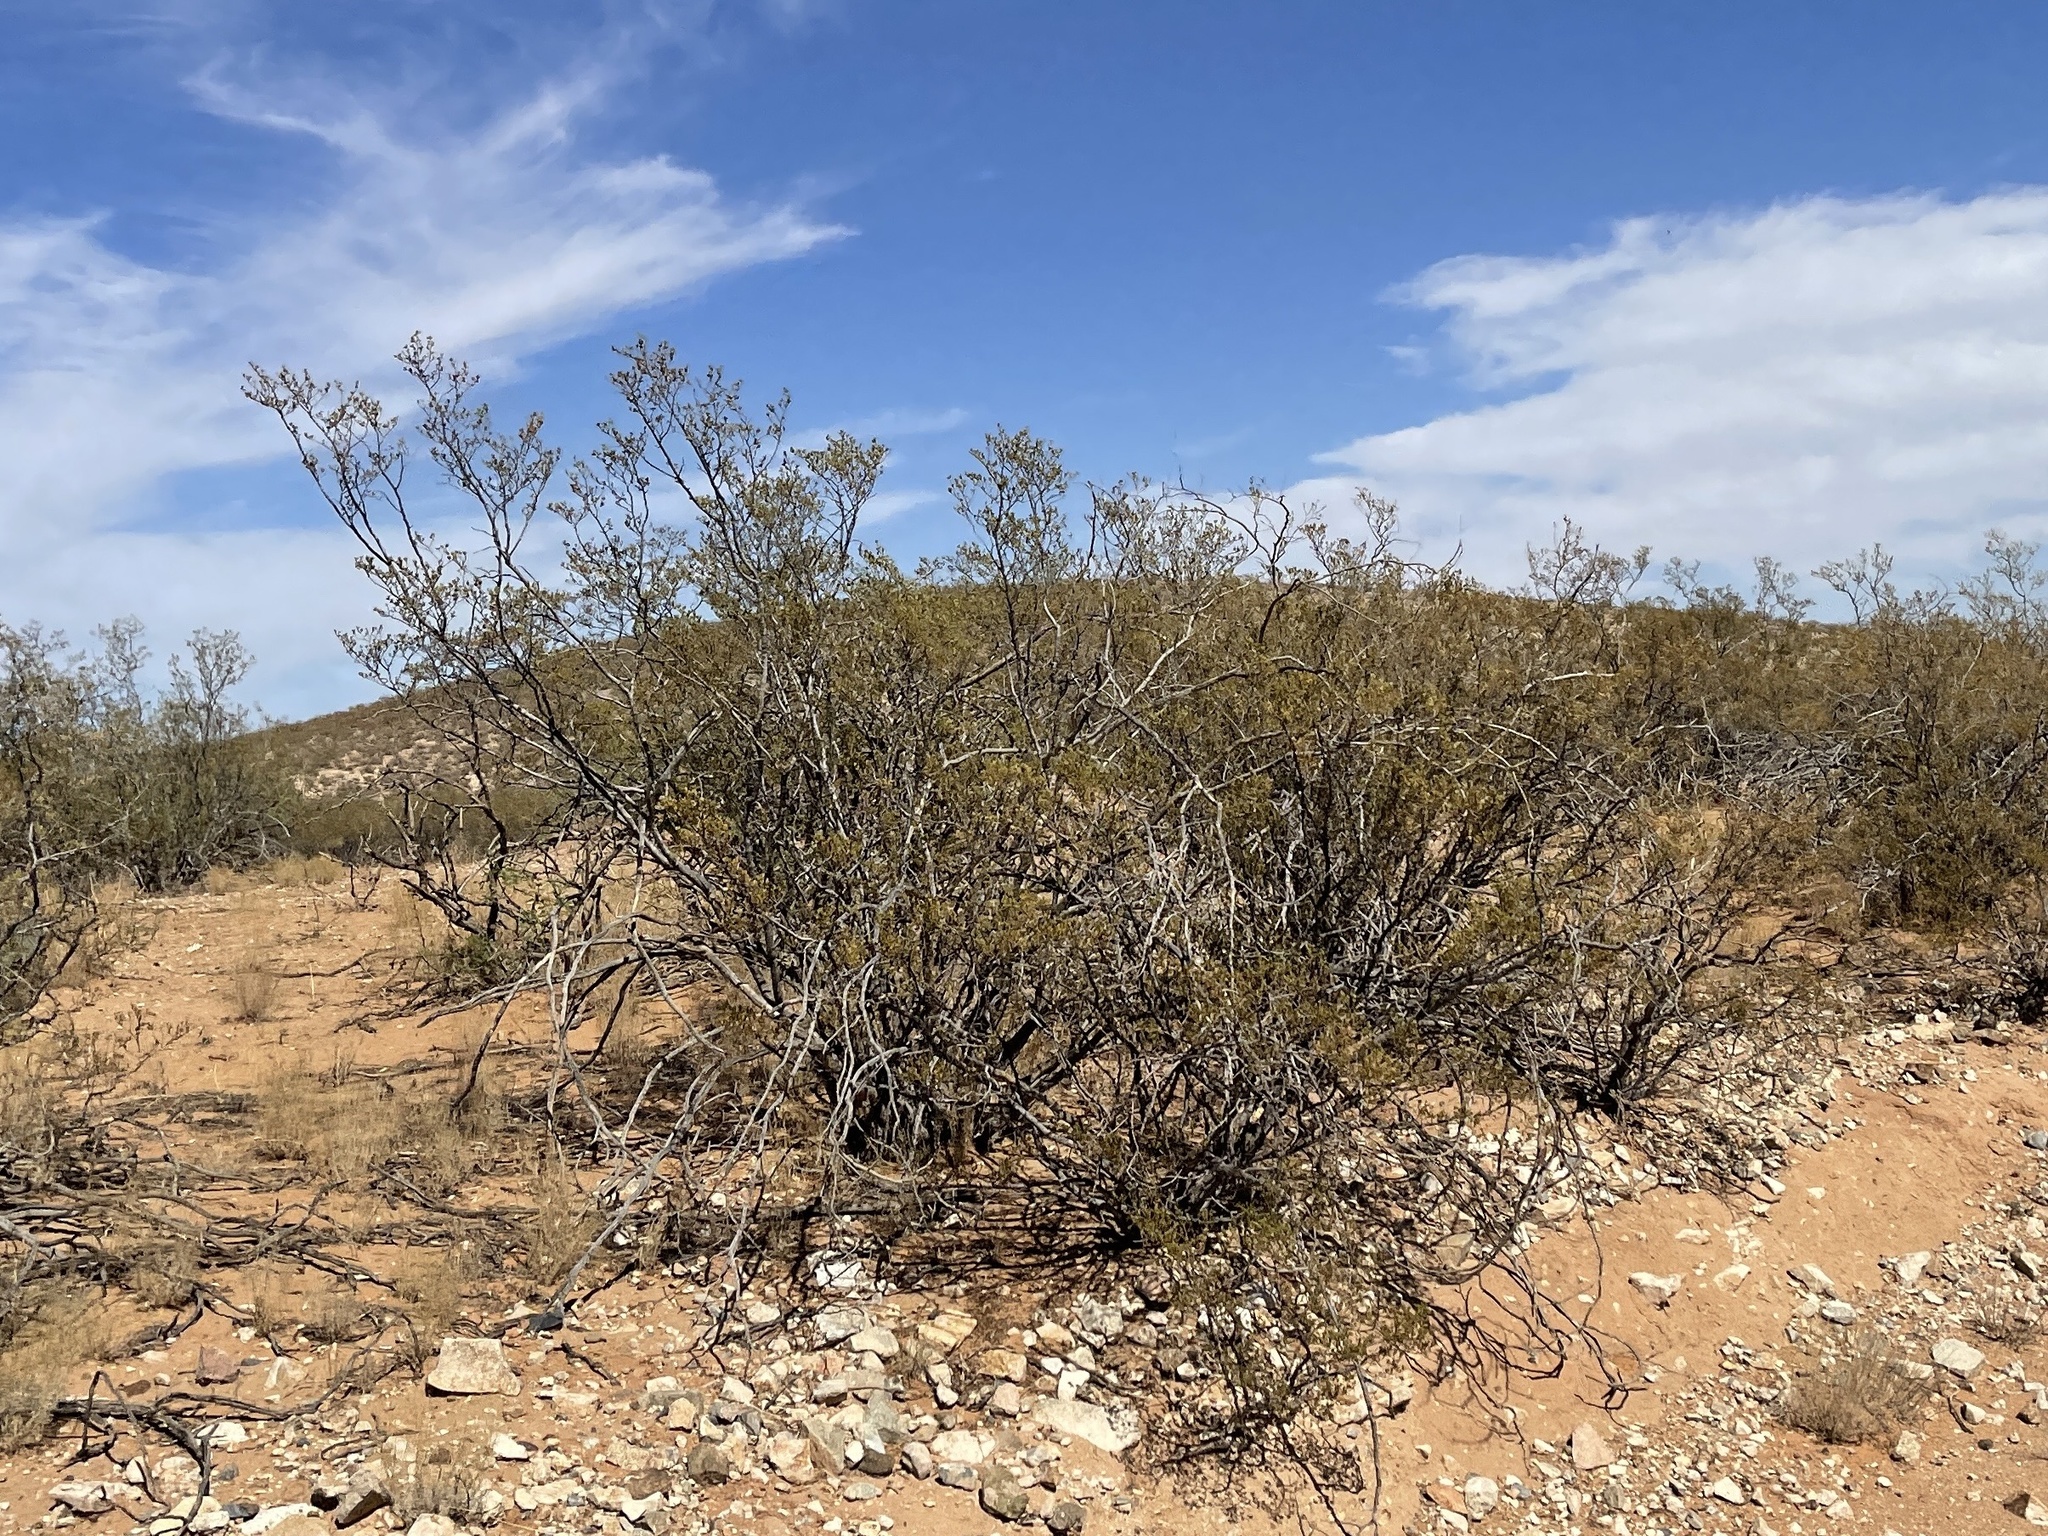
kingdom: Plantae
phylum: Tracheophyta
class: Magnoliopsida
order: Zygophyllales
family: Zygophyllaceae
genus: Larrea
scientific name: Larrea tridentata
